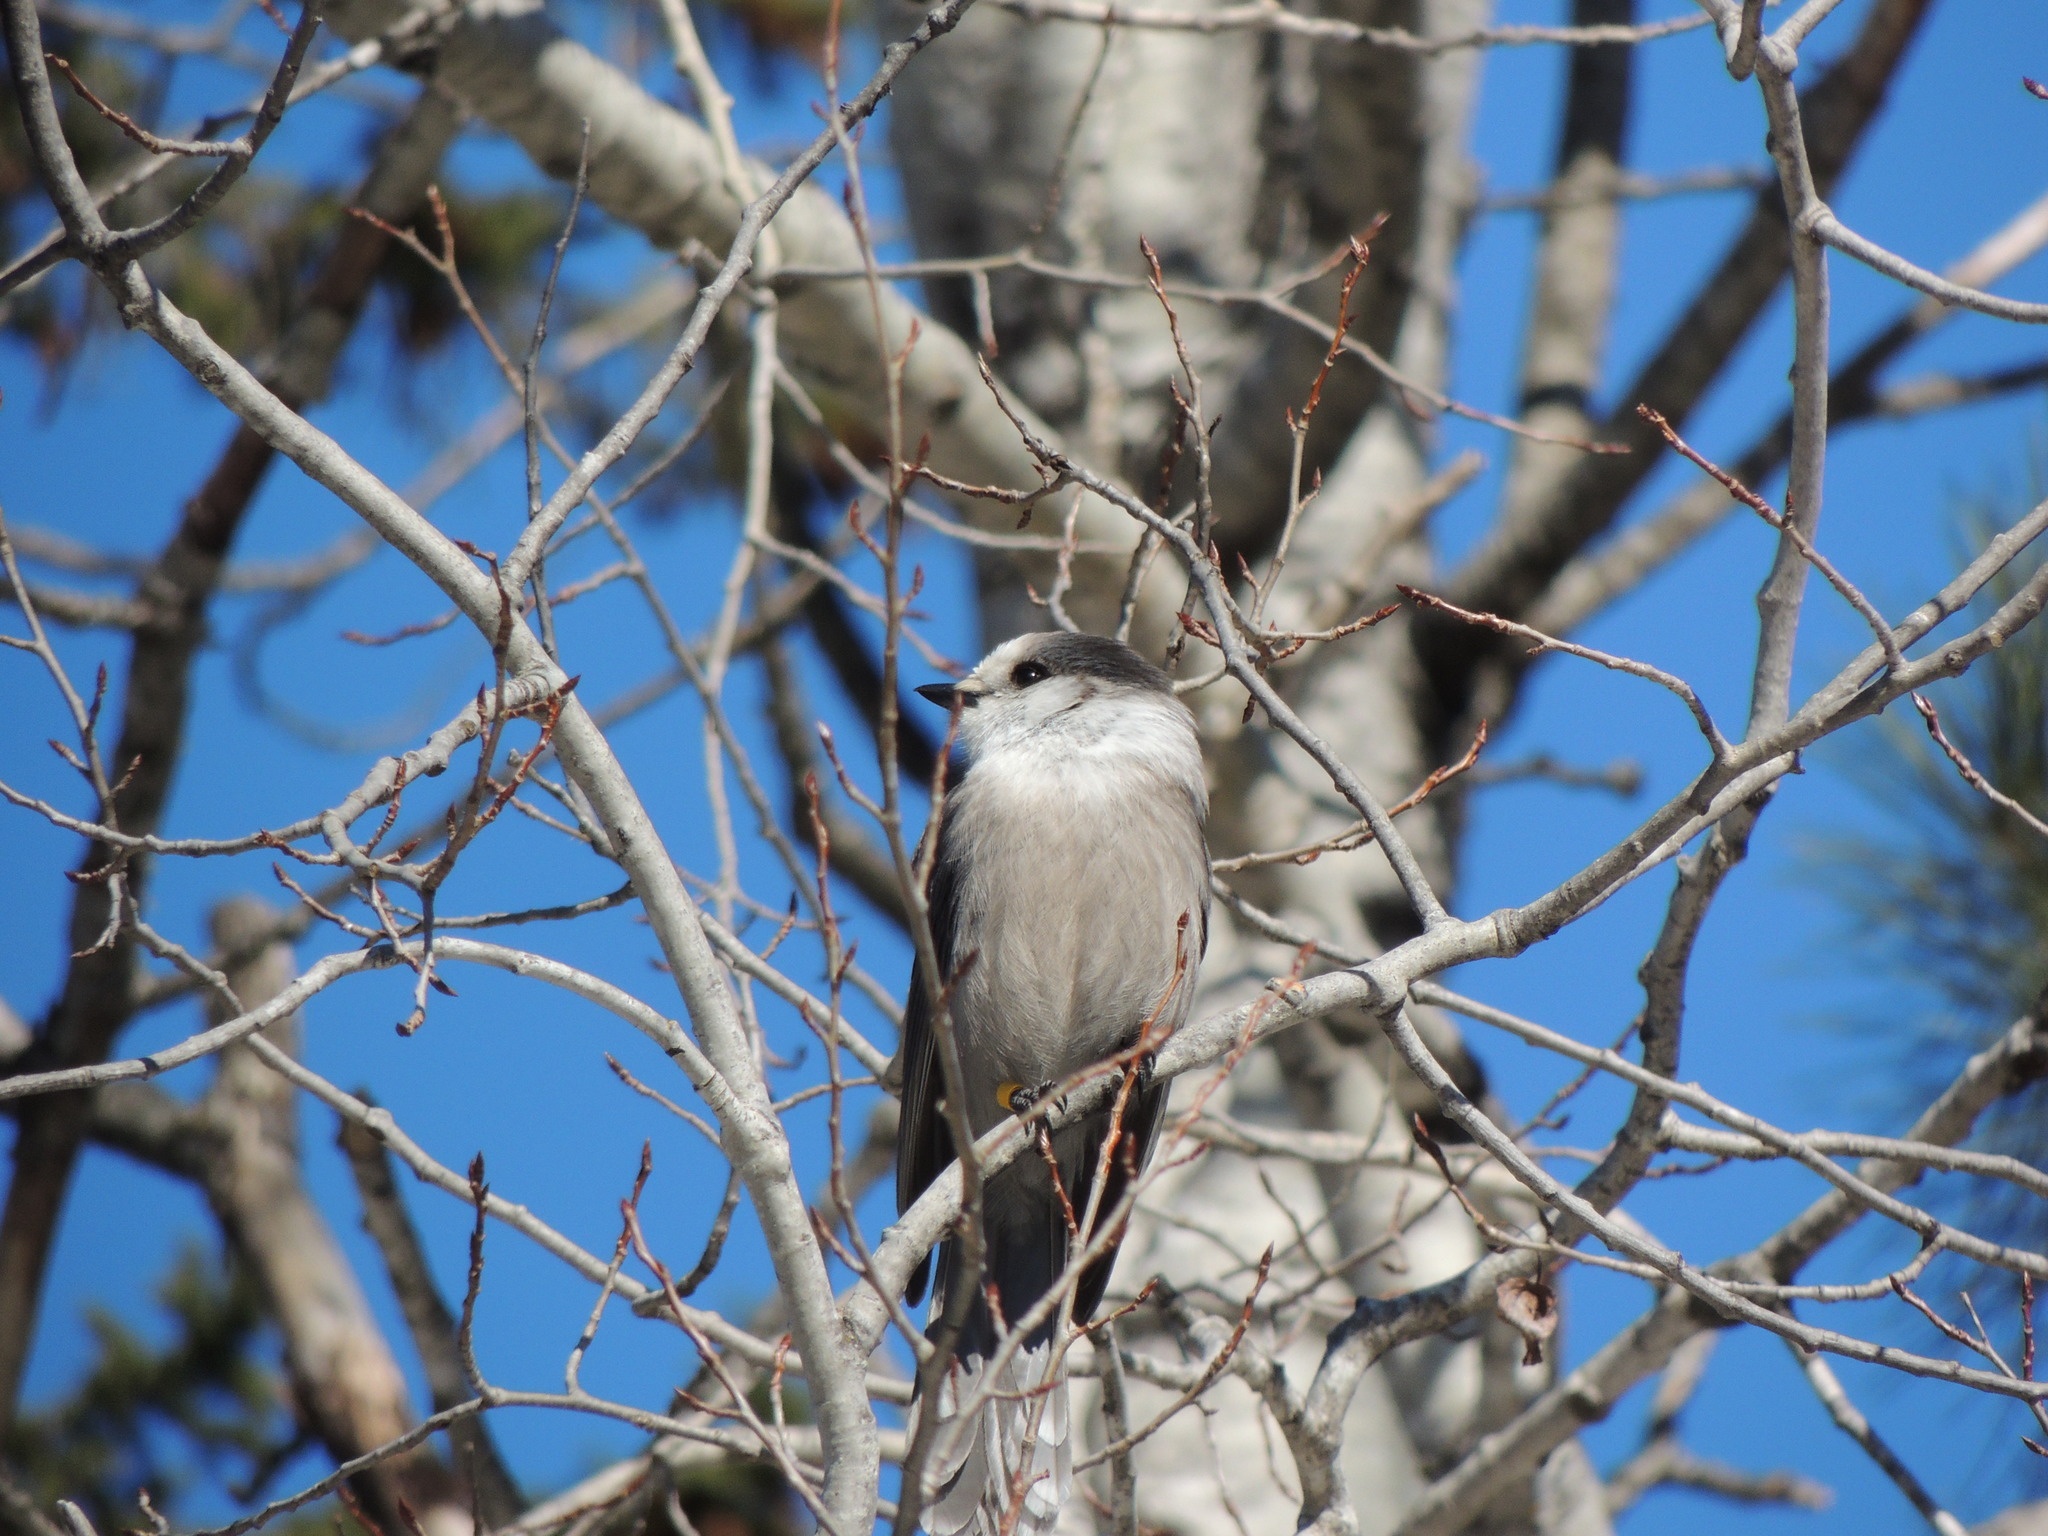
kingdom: Animalia
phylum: Chordata
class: Aves
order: Passeriformes
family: Corvidae
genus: Perisoreus
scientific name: Perisoreus canadensis
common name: Gray jay
